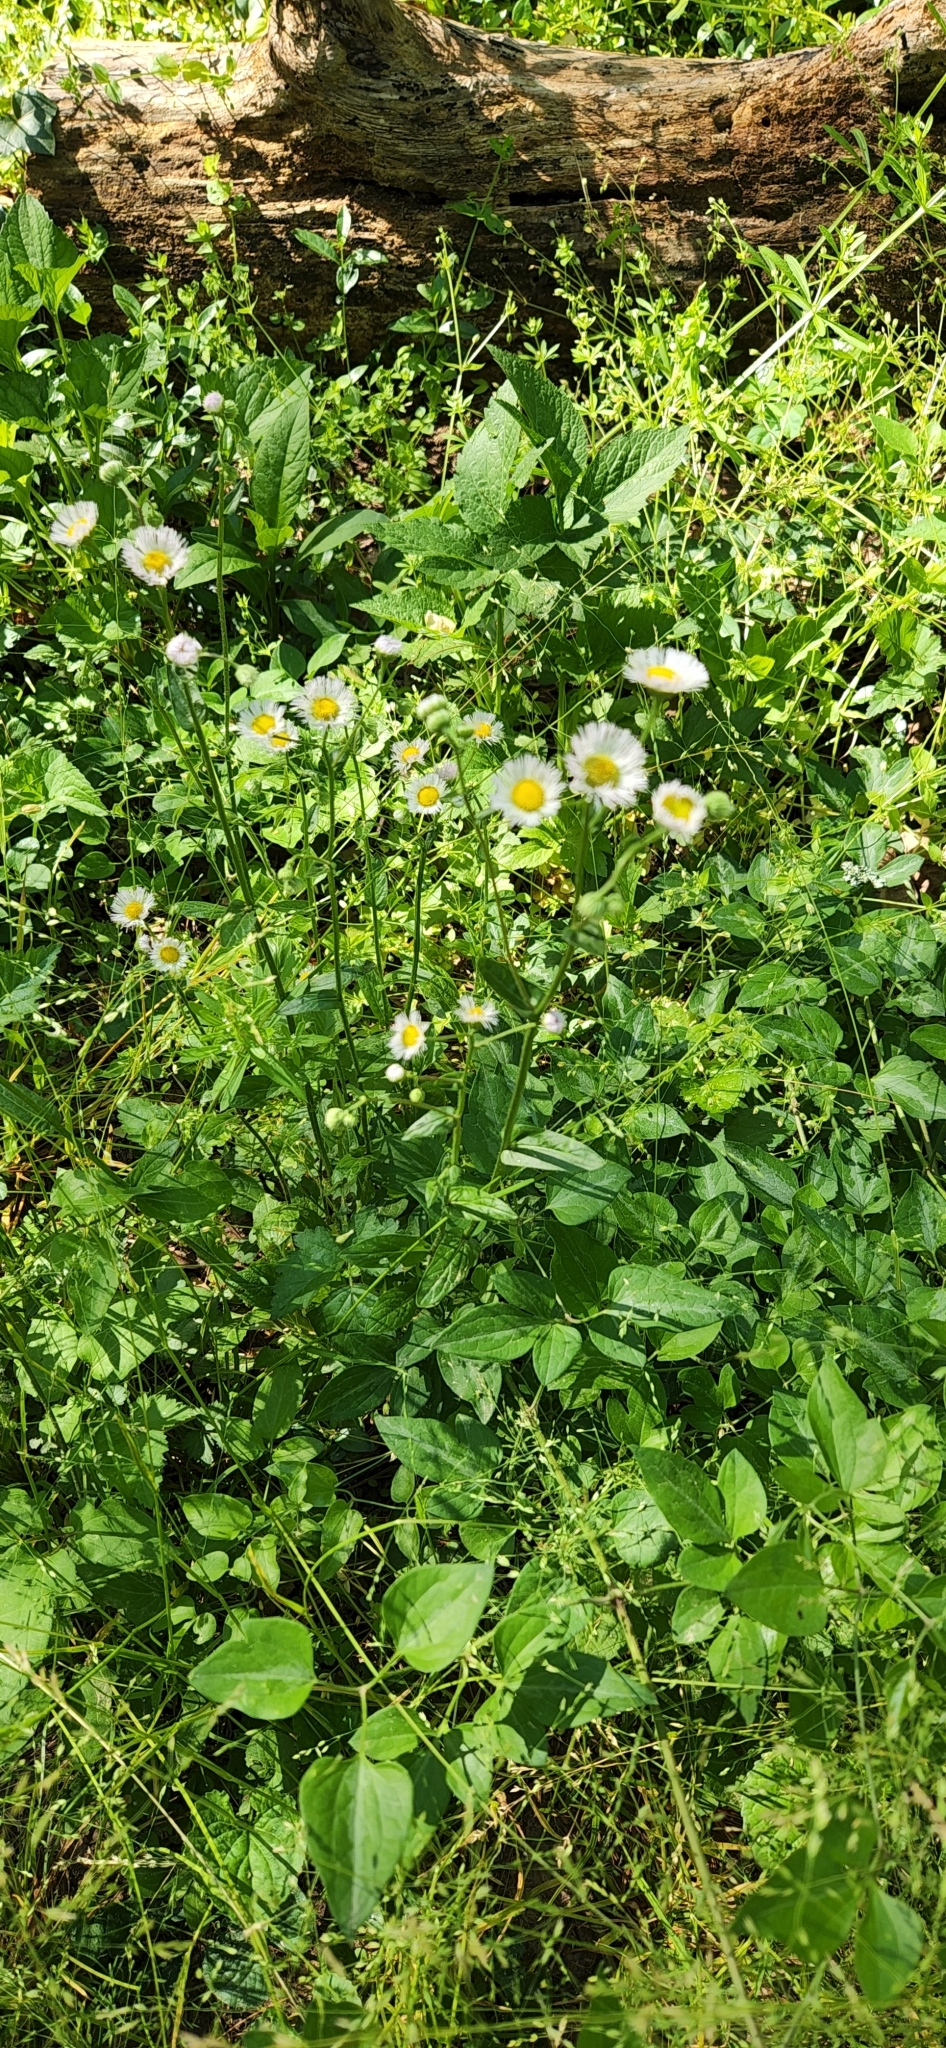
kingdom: Plantae
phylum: Tracheophyta
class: Magnoliopsida
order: Asterales
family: Asteraceae
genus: Erigeron
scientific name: Erigeron philadelphicus
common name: Robin's-plantain
